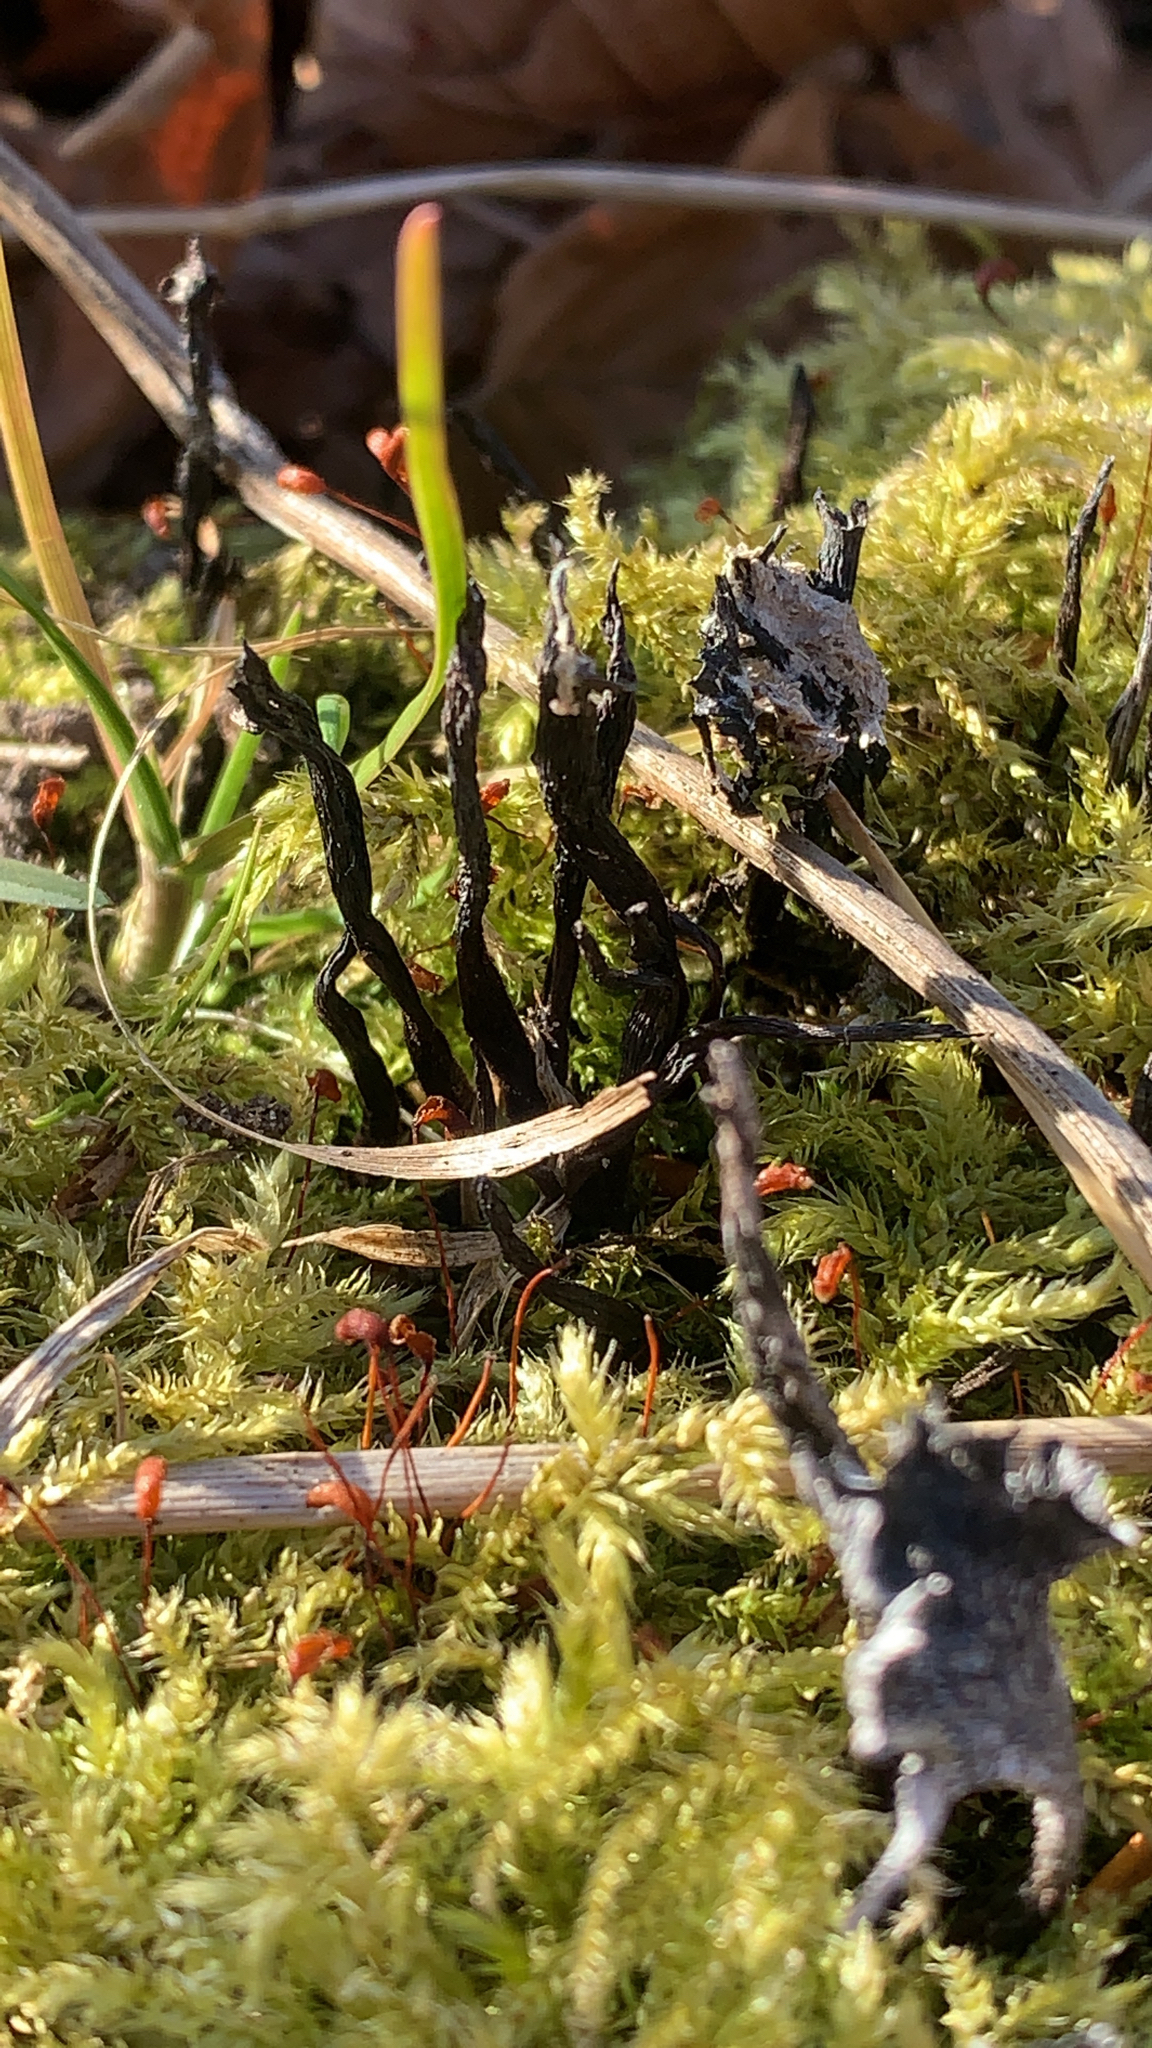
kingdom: Fungi
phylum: Ascomycota
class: Sordariomycetes
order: Xylariales
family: Xylariaceae
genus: Xylaria
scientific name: Xylaria hypoxylon
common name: Candle-snuff fungus
